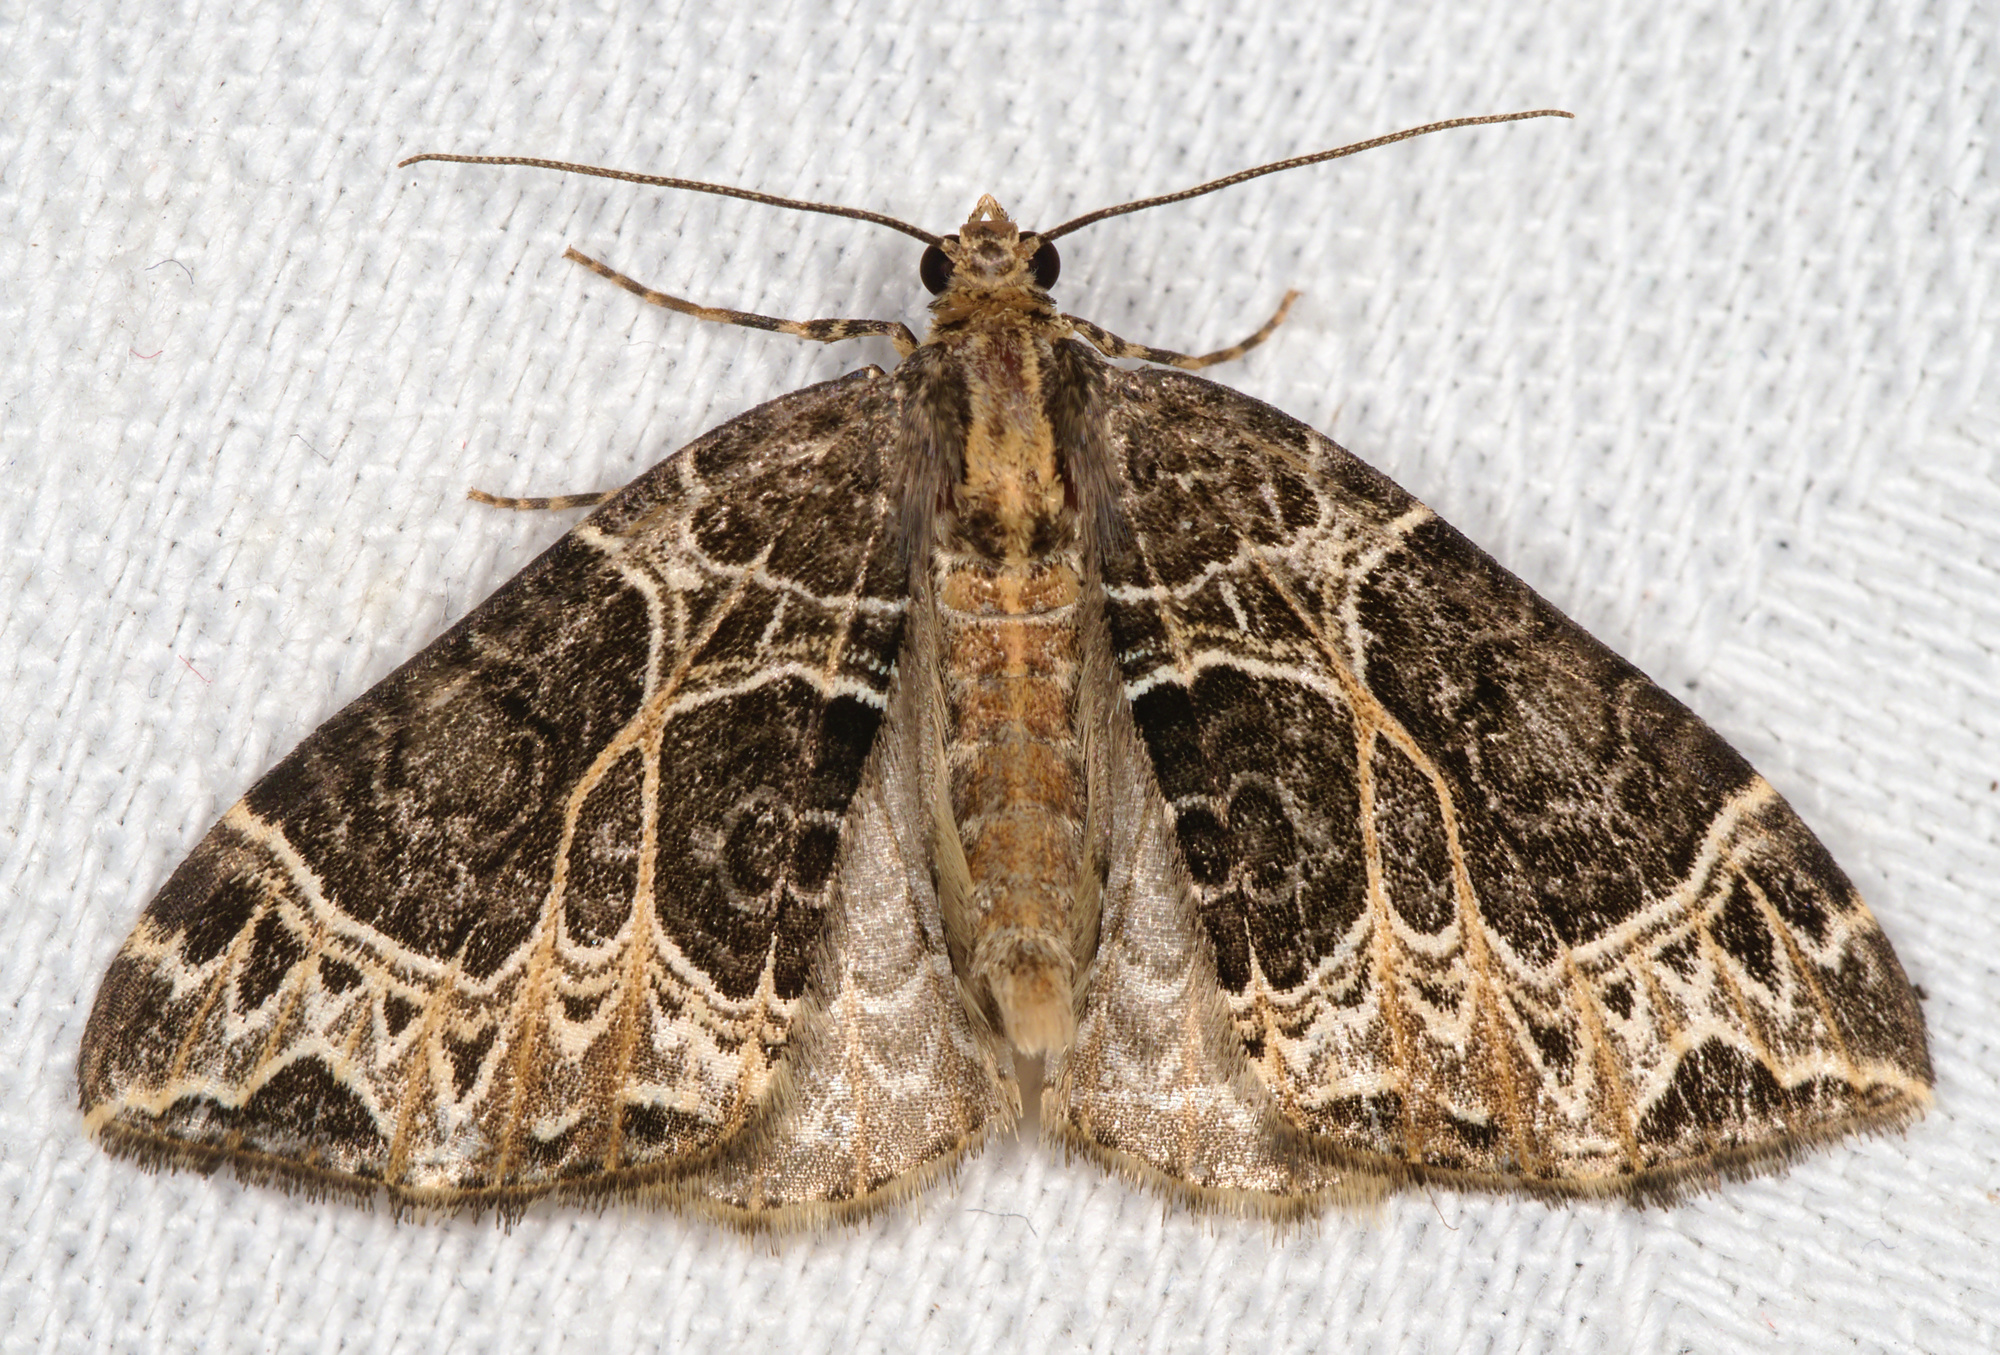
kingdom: Animalia
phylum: Arthropoda
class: Insecta
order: Lepidoptera
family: Geometridae
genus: Ecliptopera
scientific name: Ecliptopera silaceata
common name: Small phoenix
